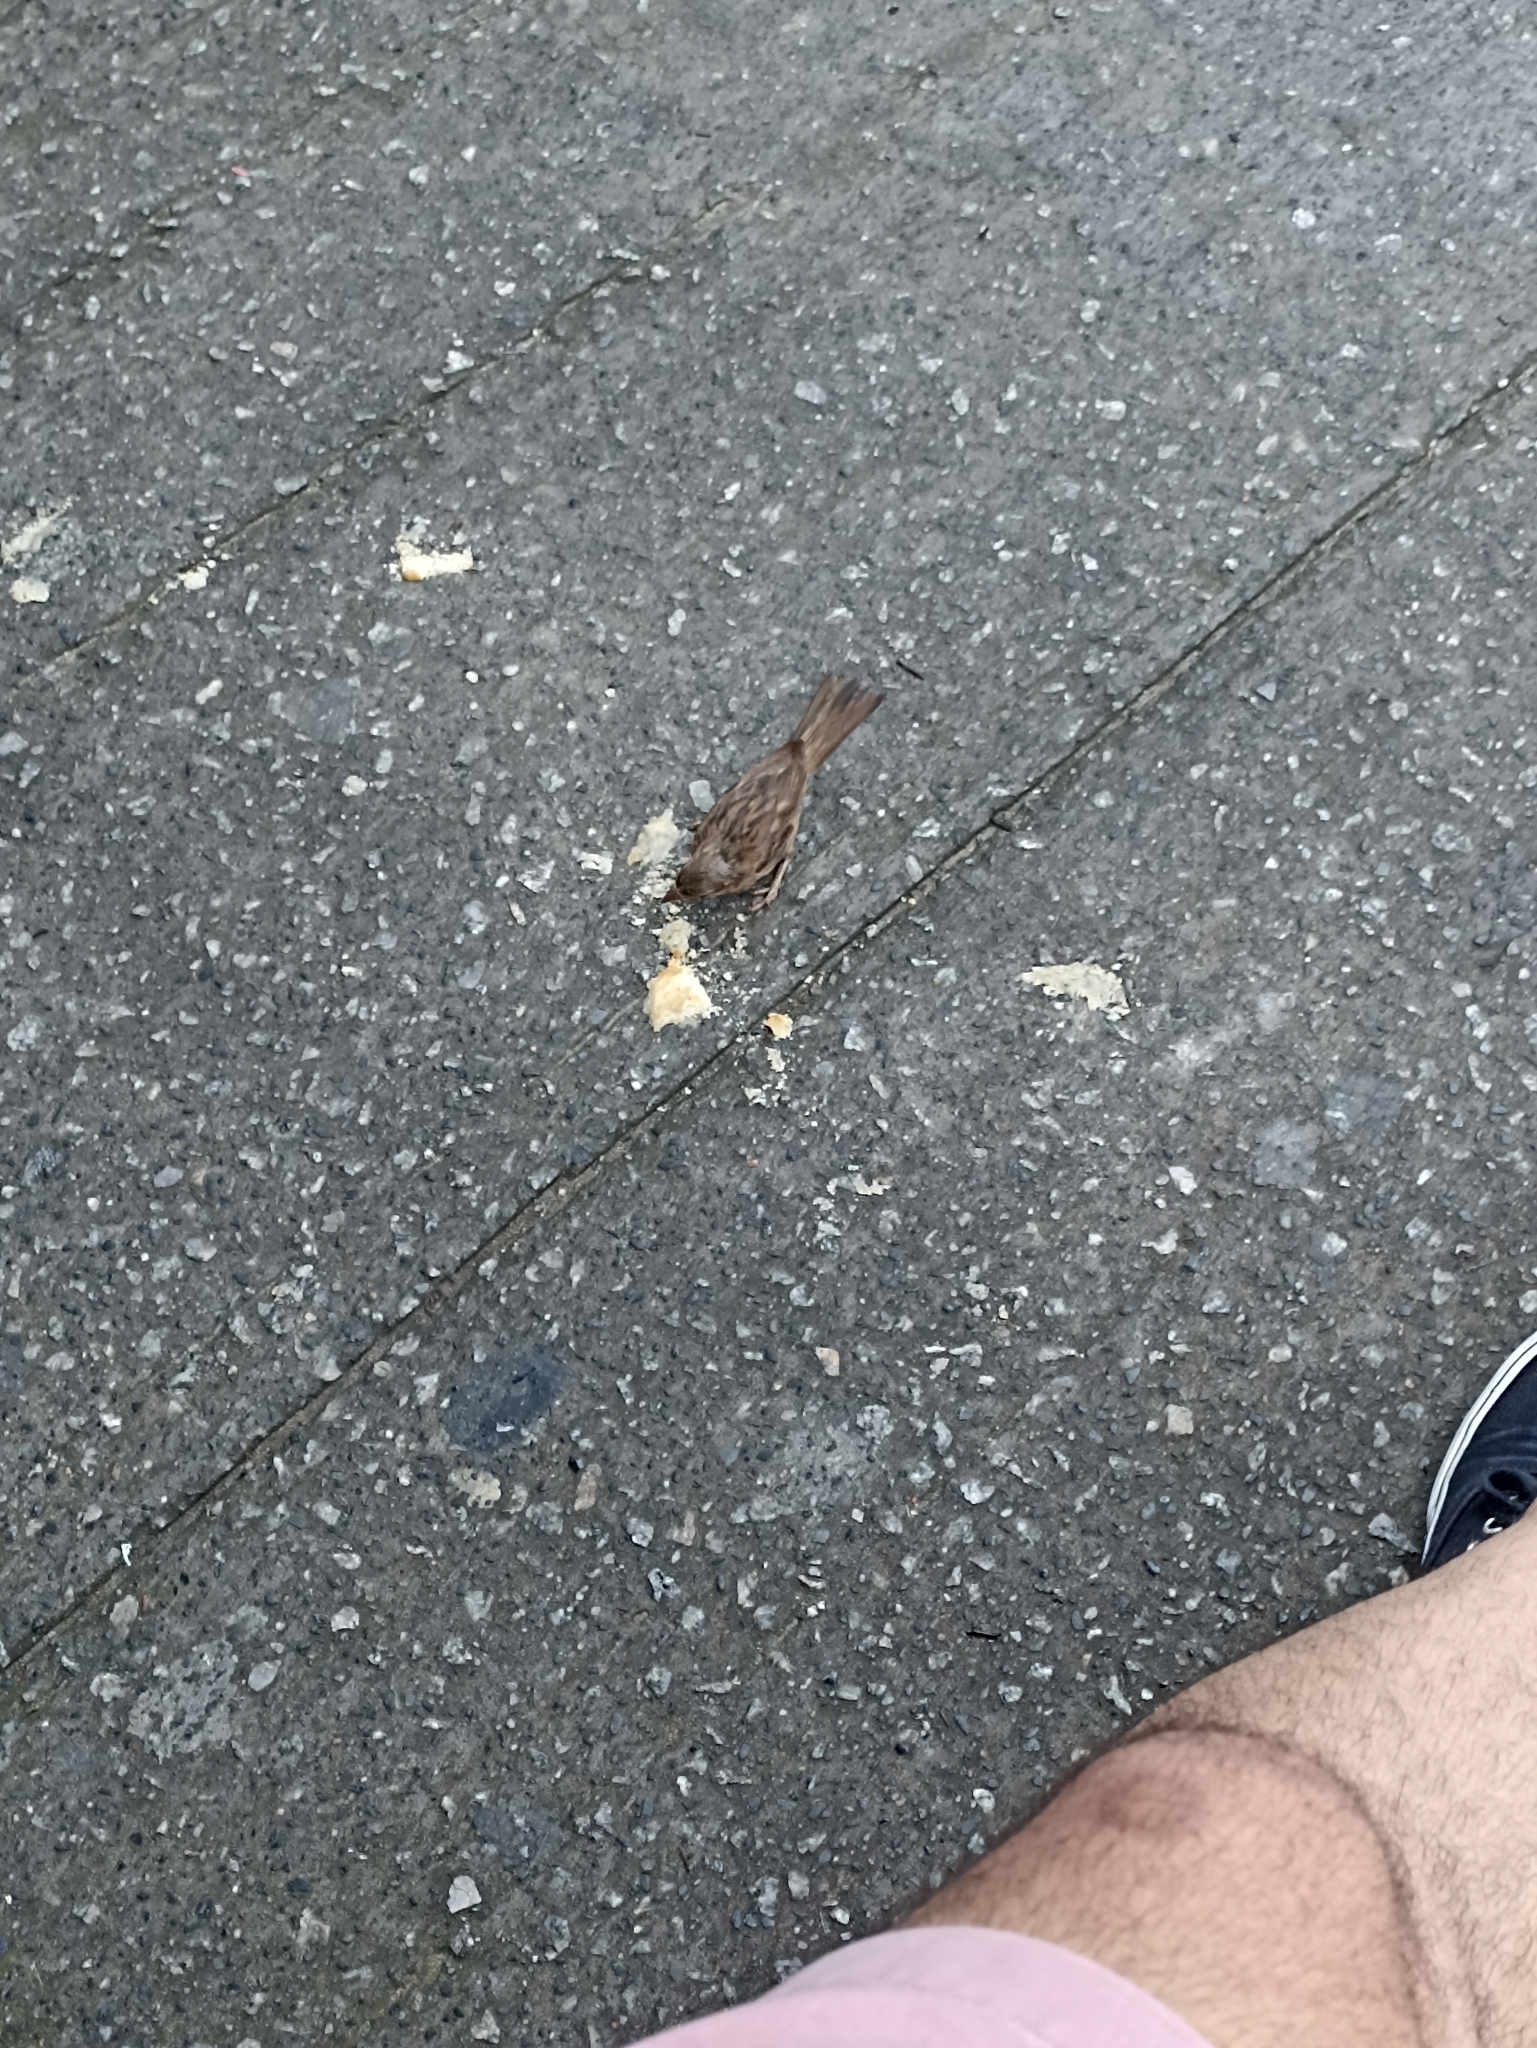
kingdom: Animalia
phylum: Chordata
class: Aves
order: Passeriformes
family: Passeridae
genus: Passer
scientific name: Passer domesticus
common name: House sparrow
